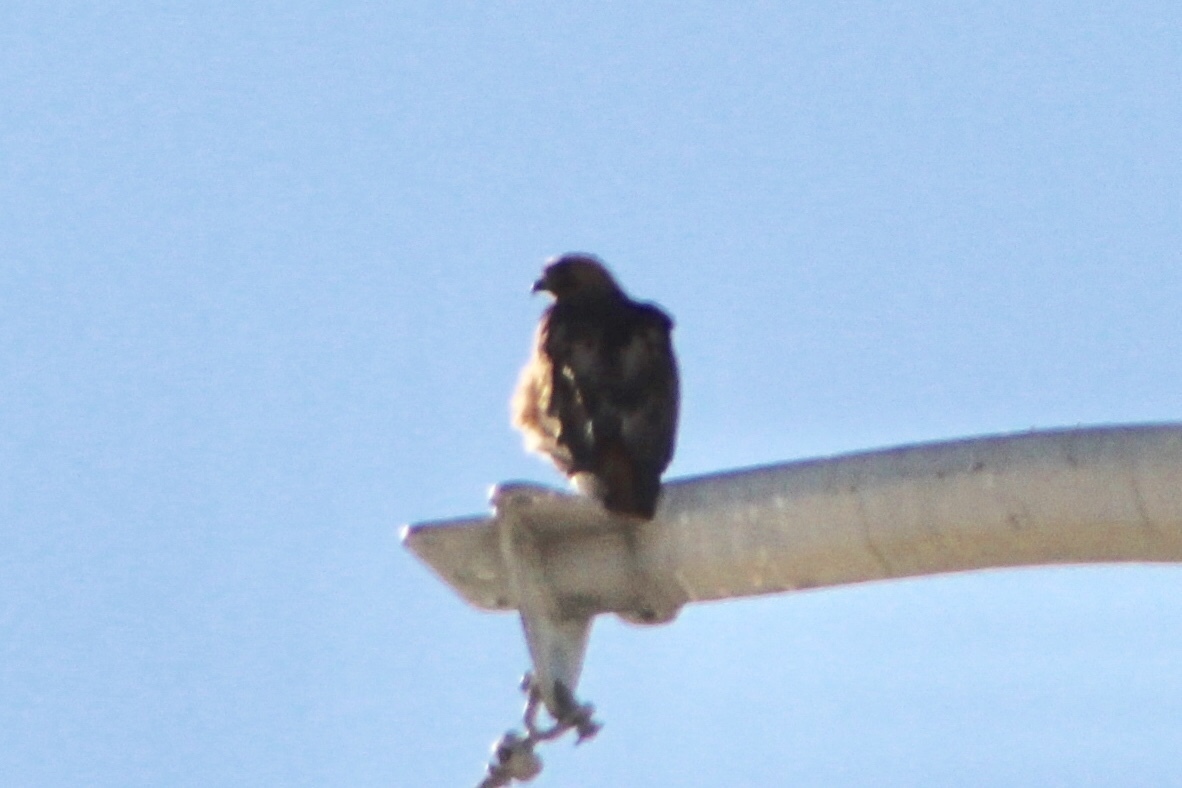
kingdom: Animalia
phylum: Chordata
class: Aves
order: Accipitriformes
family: Accipitridae
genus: Buteo
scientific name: Buteo jamaicensis
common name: Red-tailed hawk
